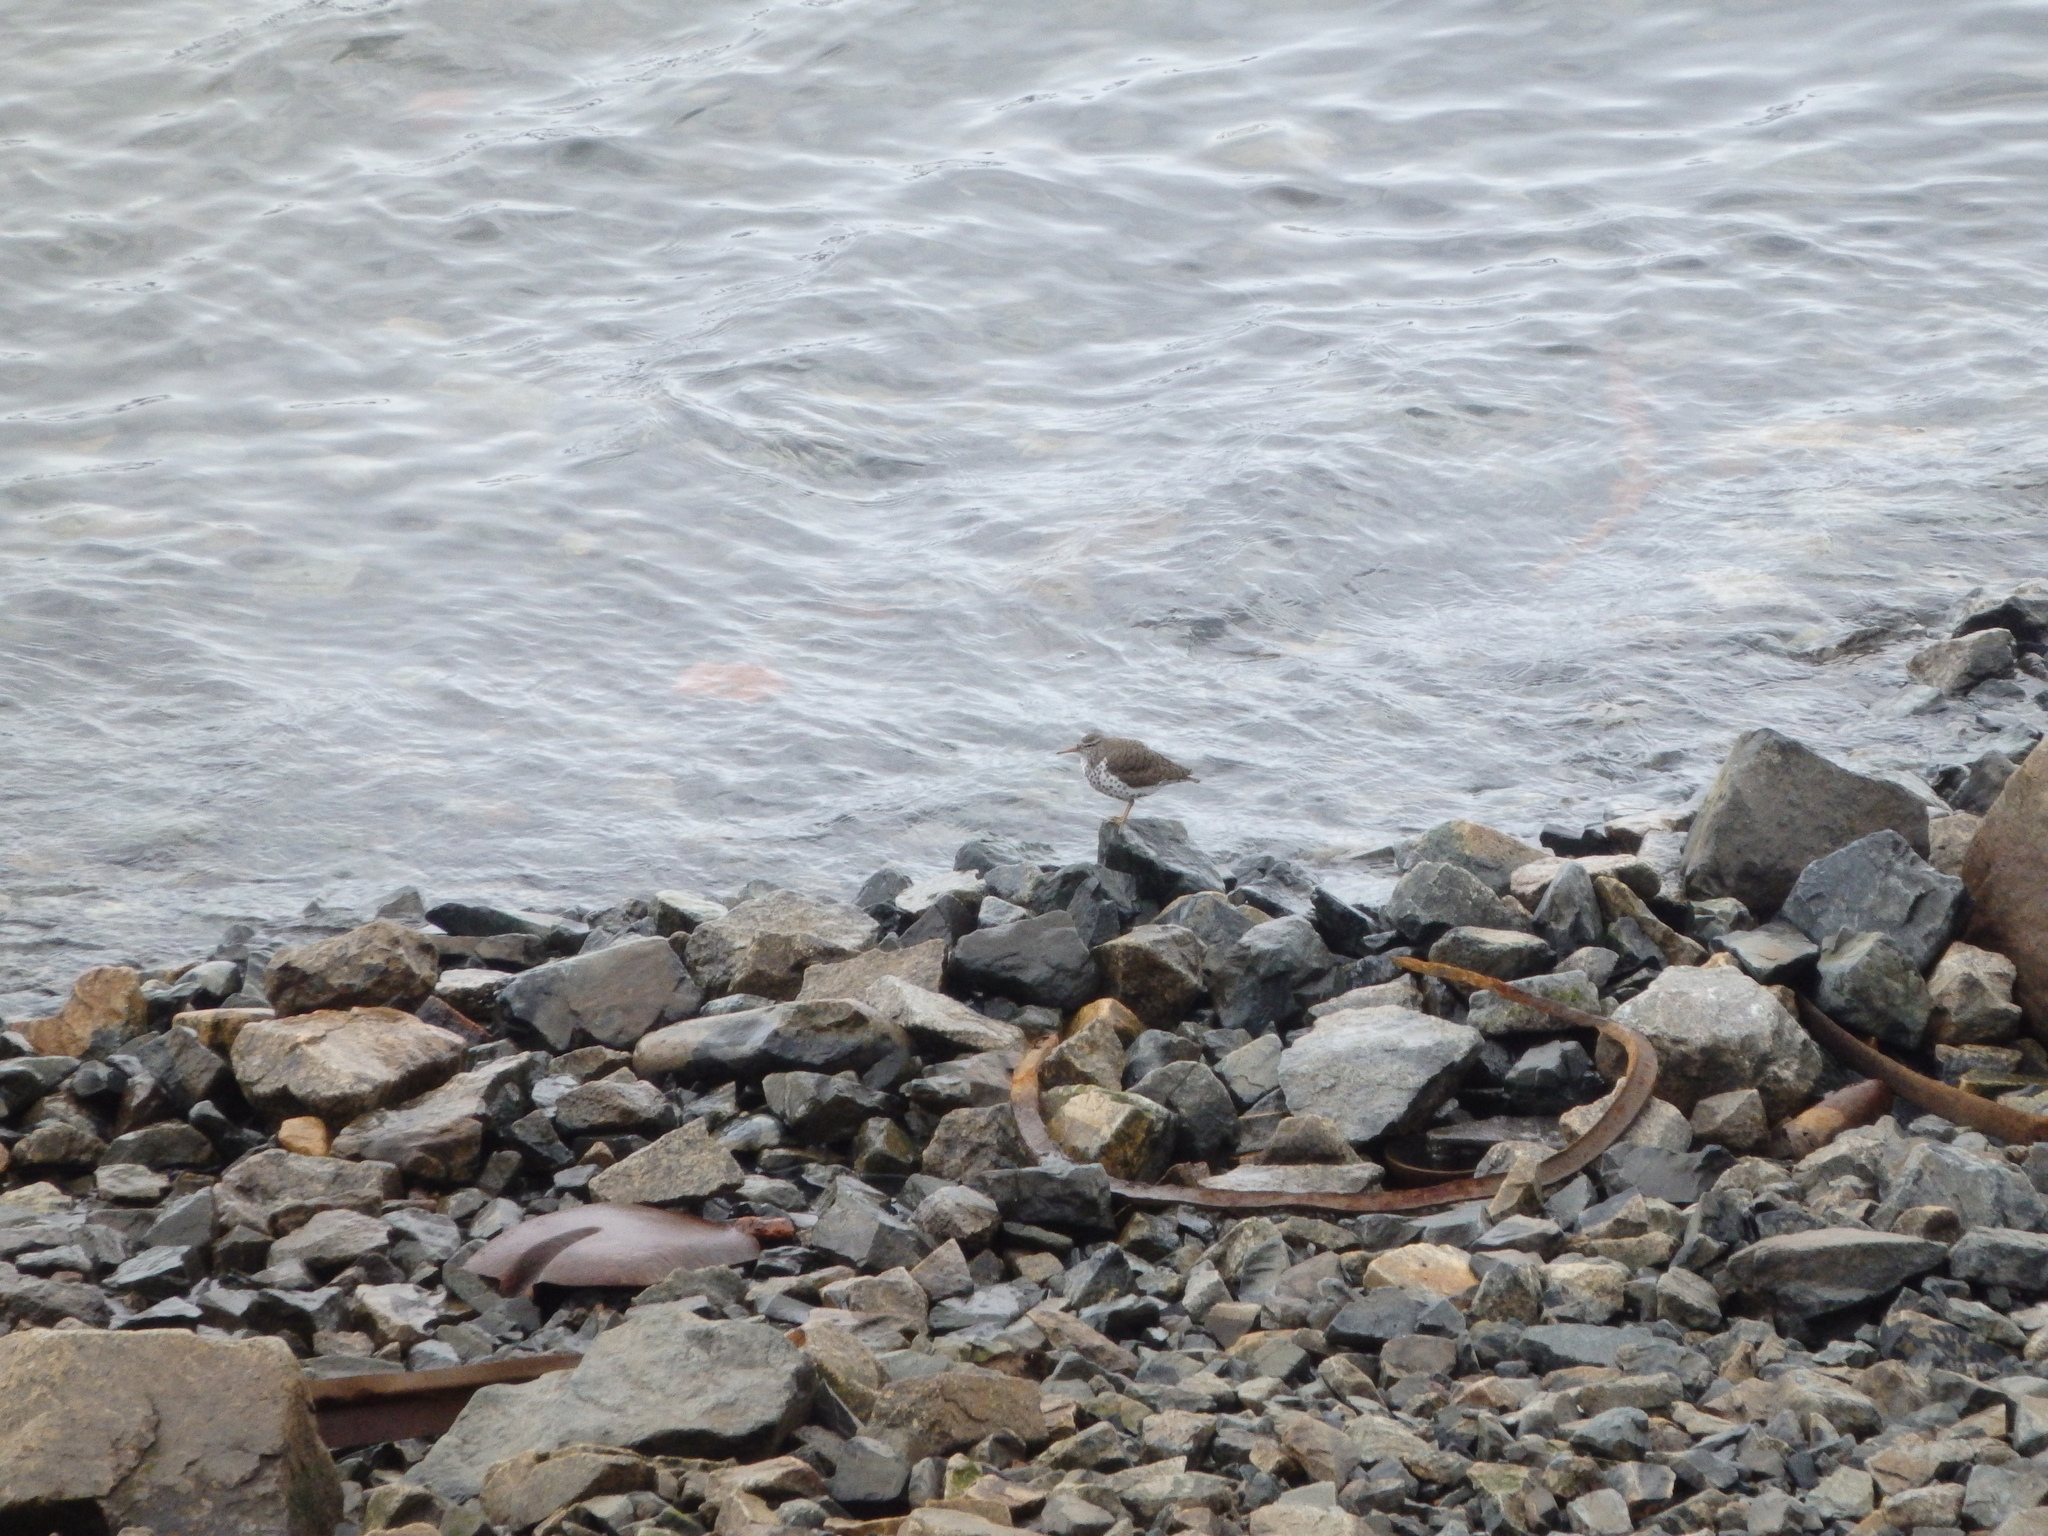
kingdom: Animalia
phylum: Chordata
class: Aves
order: Charadriiformes
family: Scolopacidae
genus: Actitis
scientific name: Actitis macularius
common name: Spotted sandpiper
